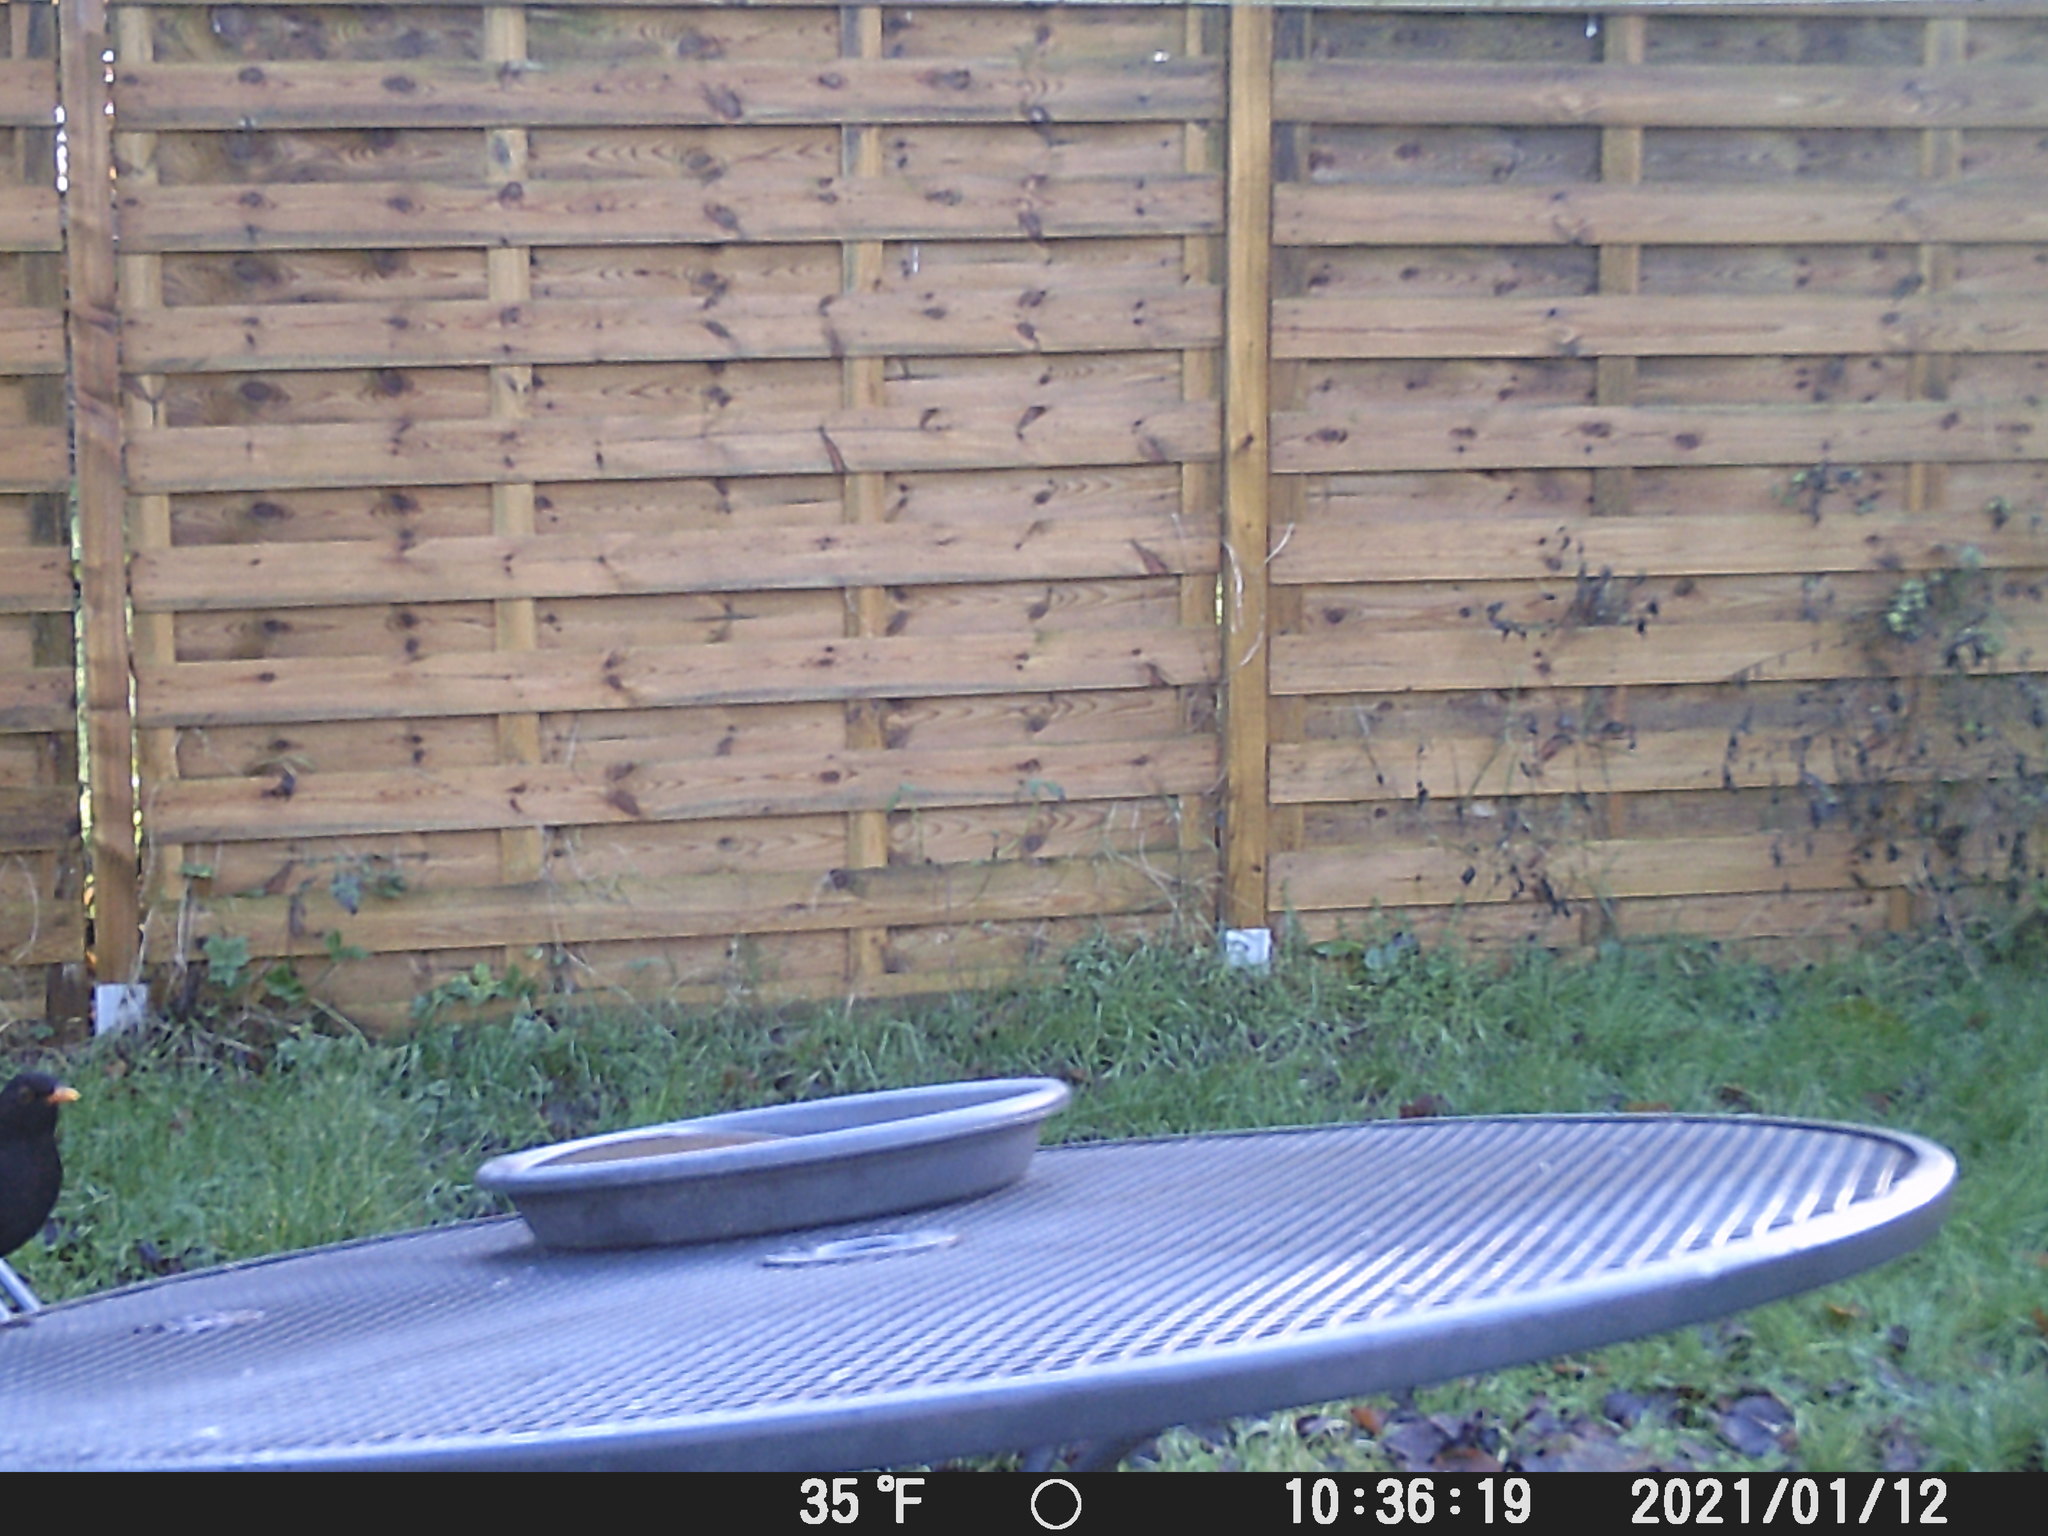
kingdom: Animalia
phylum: Chordata
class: Aves
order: Passeriformes
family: Turdidae
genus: Turdus
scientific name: Turdus merula
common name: Common blackbird
